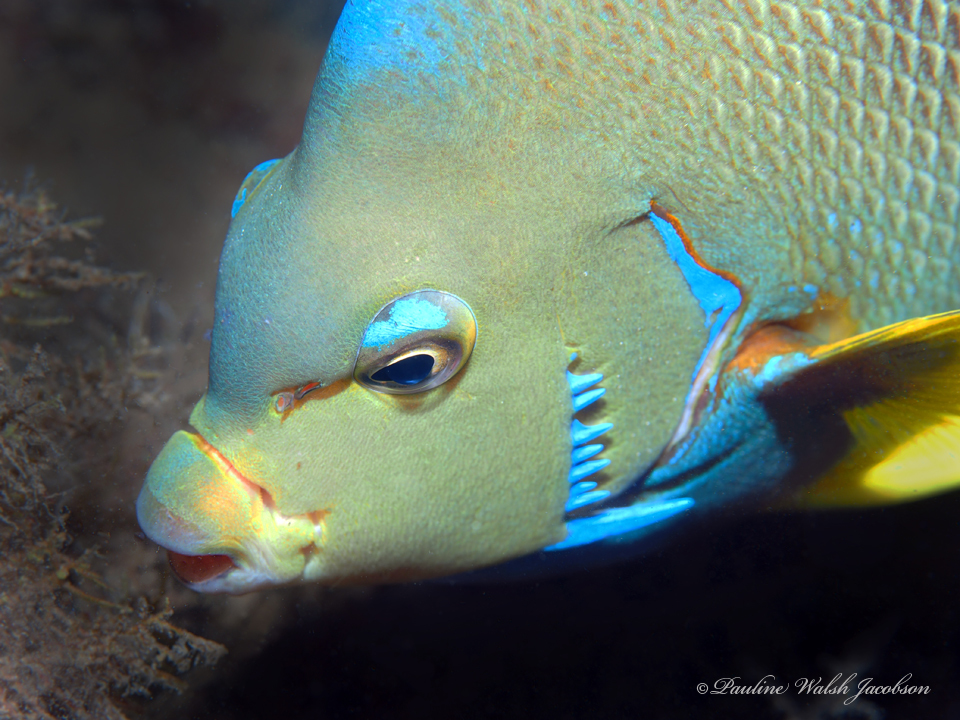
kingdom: Animalia
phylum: Chordata
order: Perciformes
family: Pomacanthidae
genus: Holacanthus
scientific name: Holacanthus bermudensis
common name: Blue angelfish
